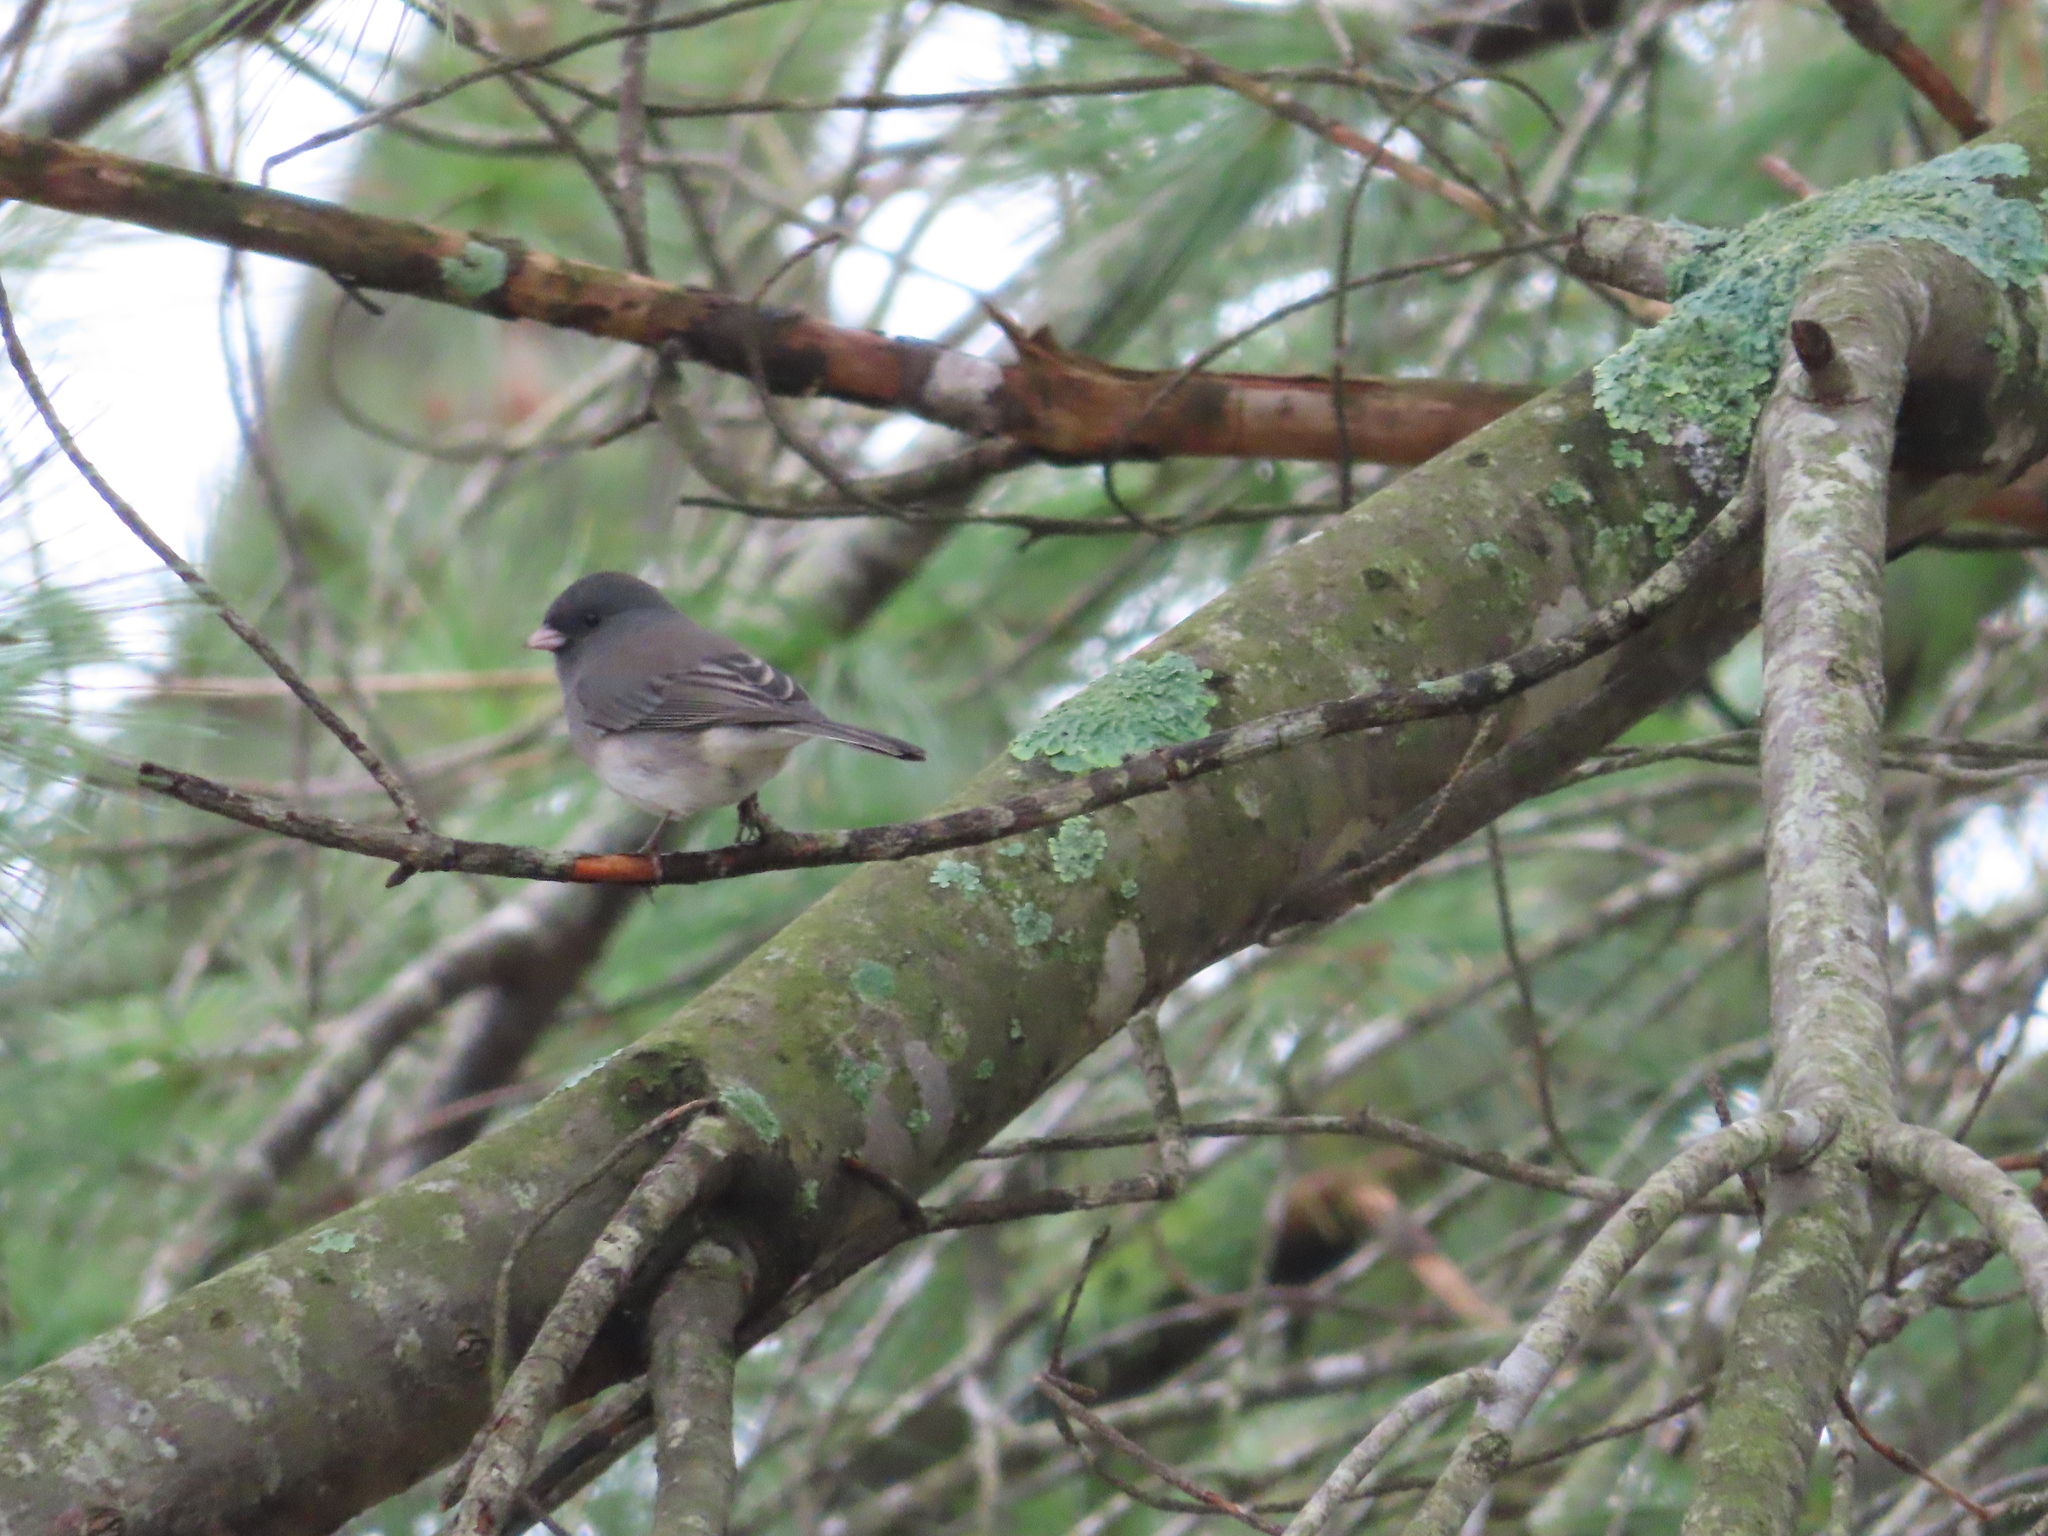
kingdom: Animalia
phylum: Chordata
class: Aves
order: Passeriformes
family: Passerellidae
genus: Junco
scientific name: Junco hyemalis
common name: Dark-eyed junco
